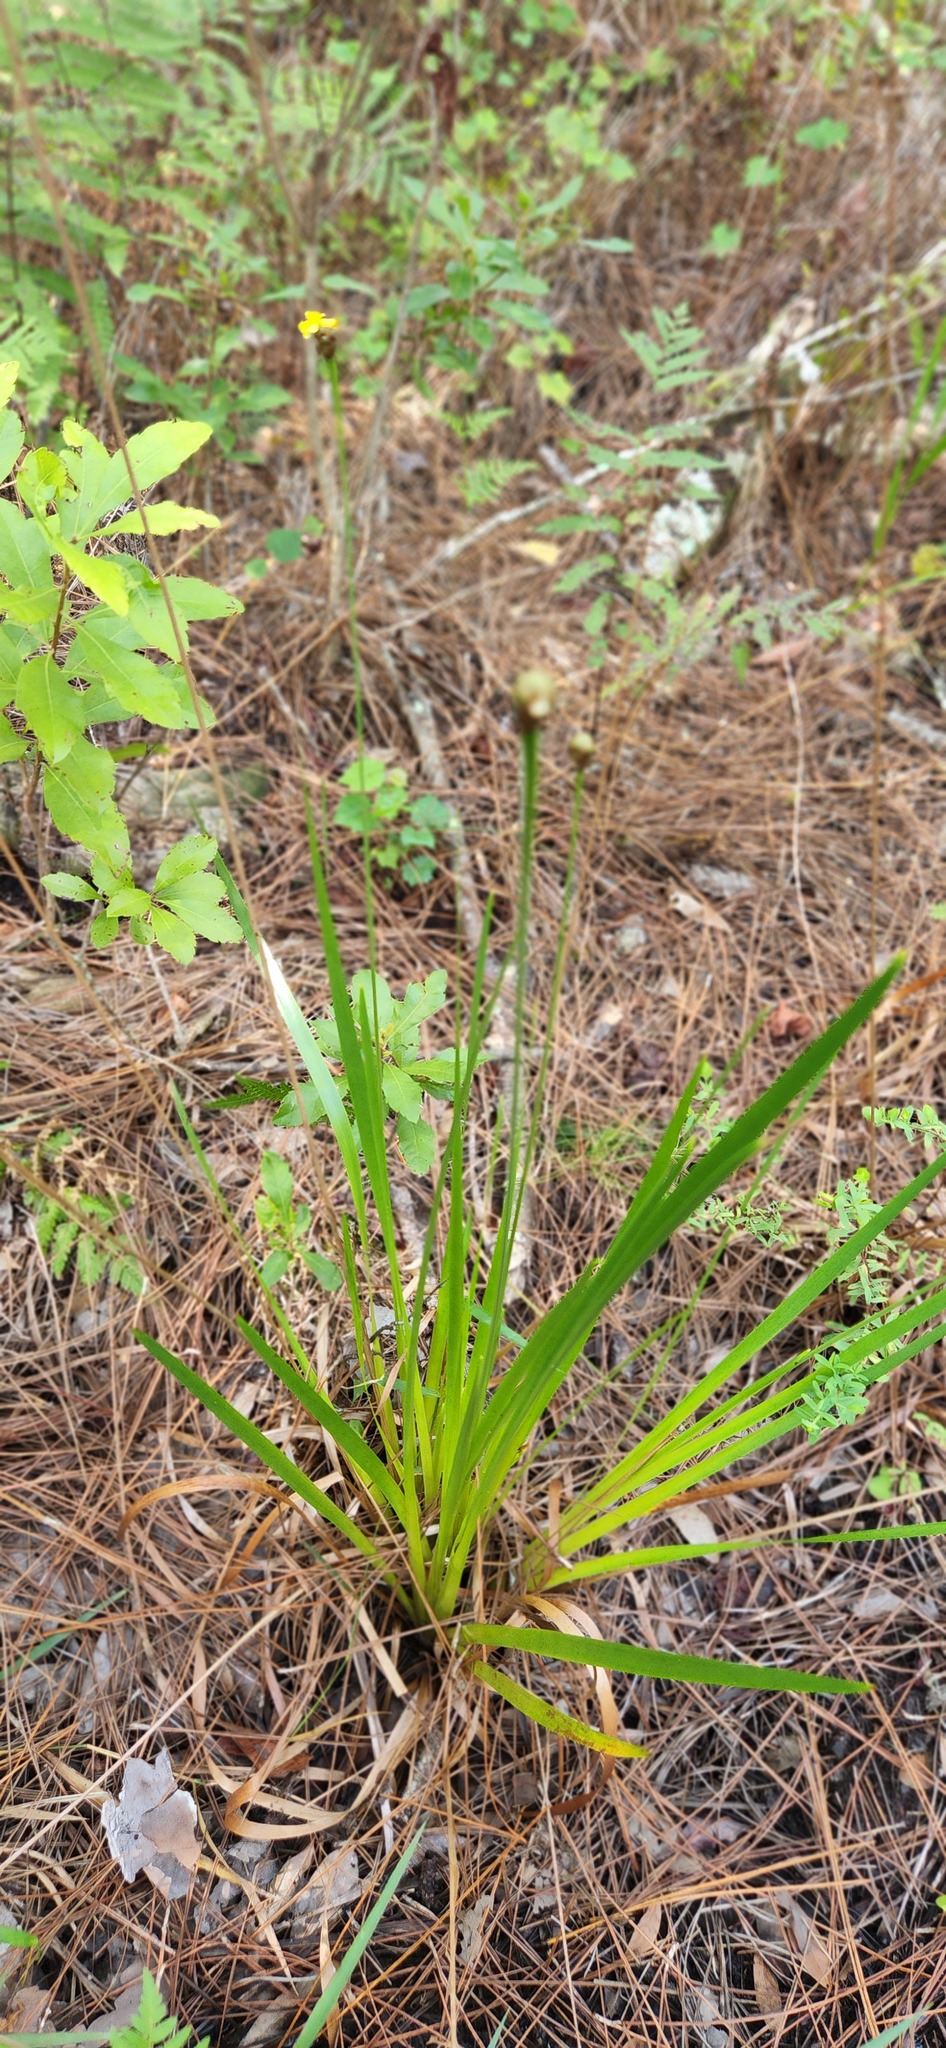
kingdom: Plantae
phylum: Tracheophyta
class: Liliopsida
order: Poales
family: Xyridaceae
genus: Xyris
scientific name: Xyris ambigua
